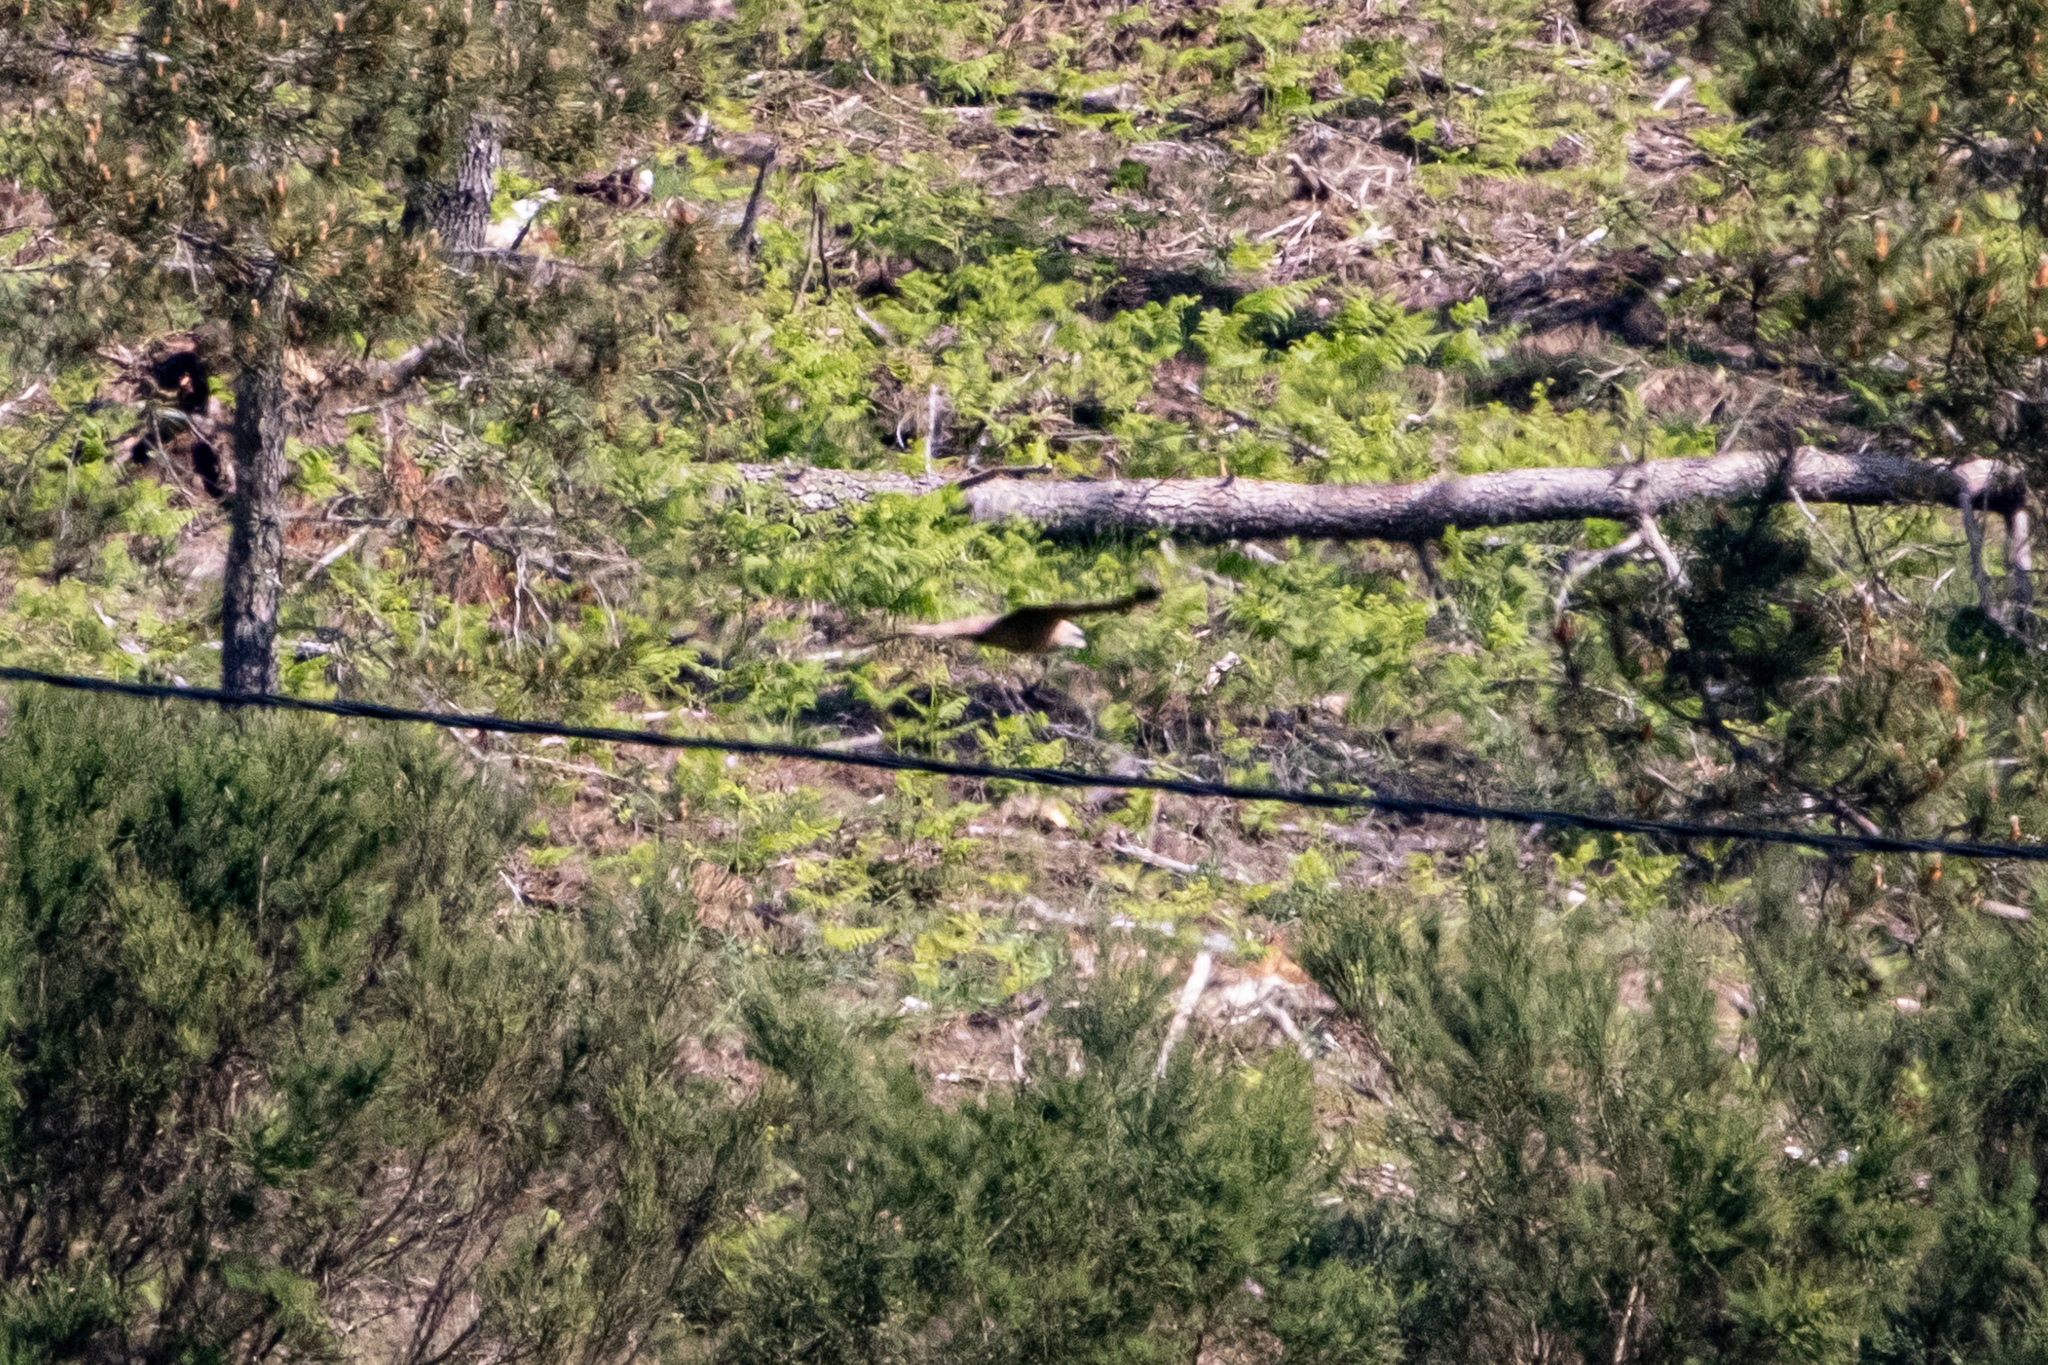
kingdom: Animalia
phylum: Chordata
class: Aves
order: Accipitriformes
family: Accipitridae
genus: Milvus
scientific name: Milvus migrans
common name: Black kite
